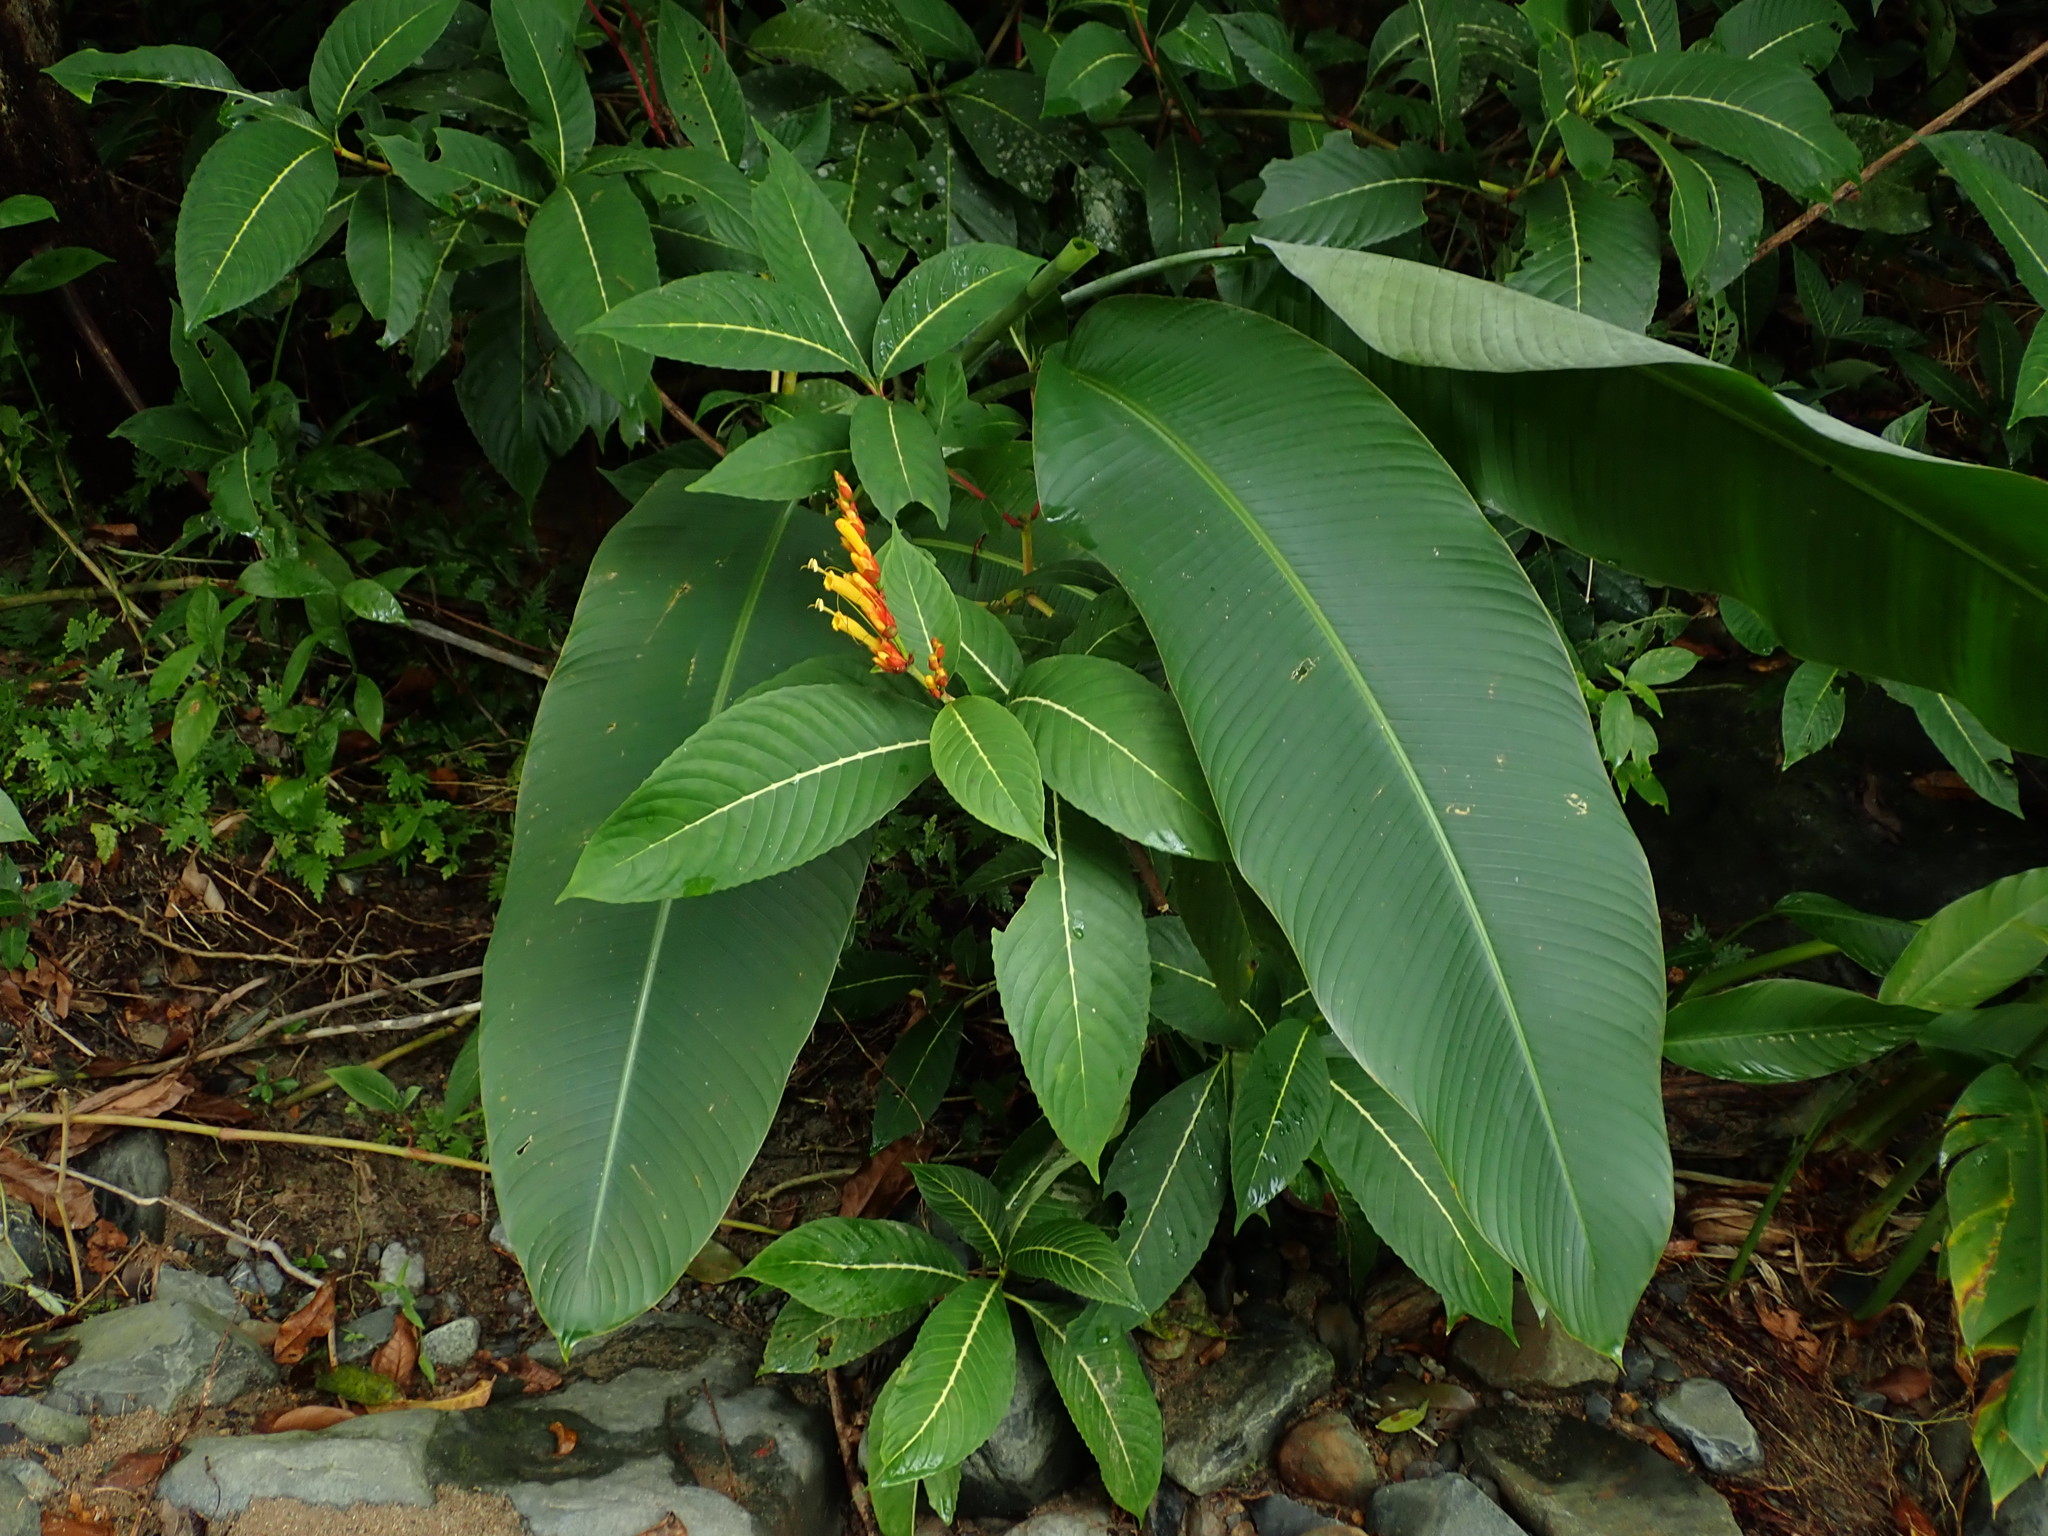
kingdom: Plantae
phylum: Tracheophyta
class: Magnoliopsida
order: Lamiales
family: Acanthaceae
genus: Sanchezia
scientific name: Sanchezia parvibracteata
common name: Sanchezia
